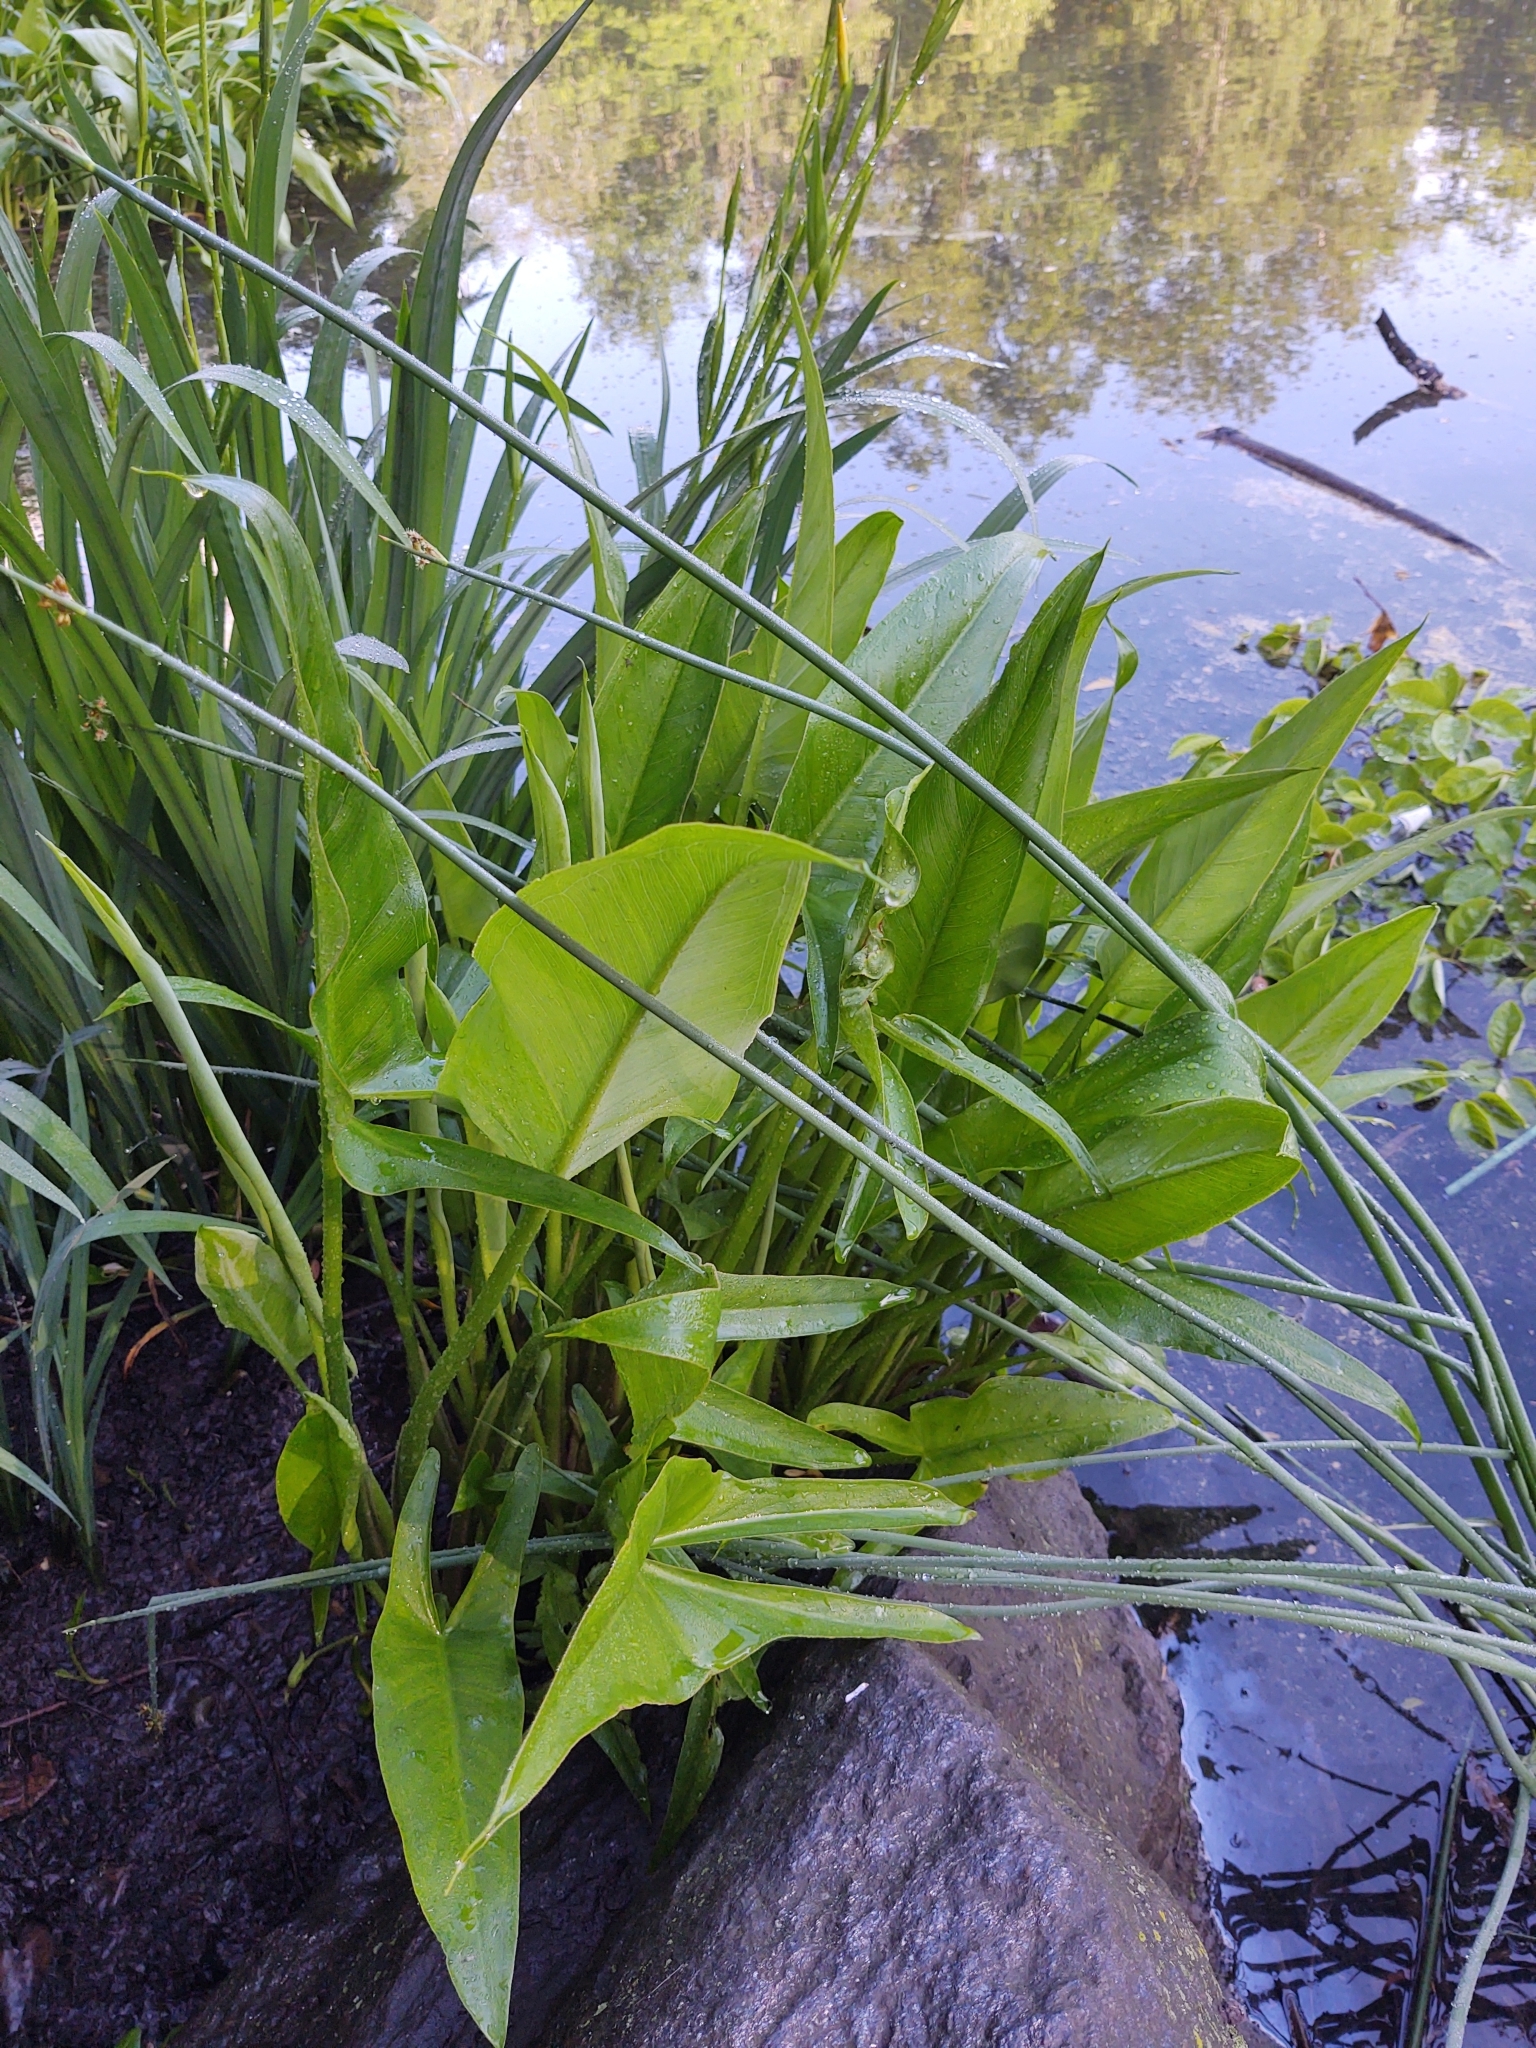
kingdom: Plantae
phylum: Tracheophyta
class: Liliopsida
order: Alismatales
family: Araceae
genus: Peltandra
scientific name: Peltandra virginica
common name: Arrow arum
